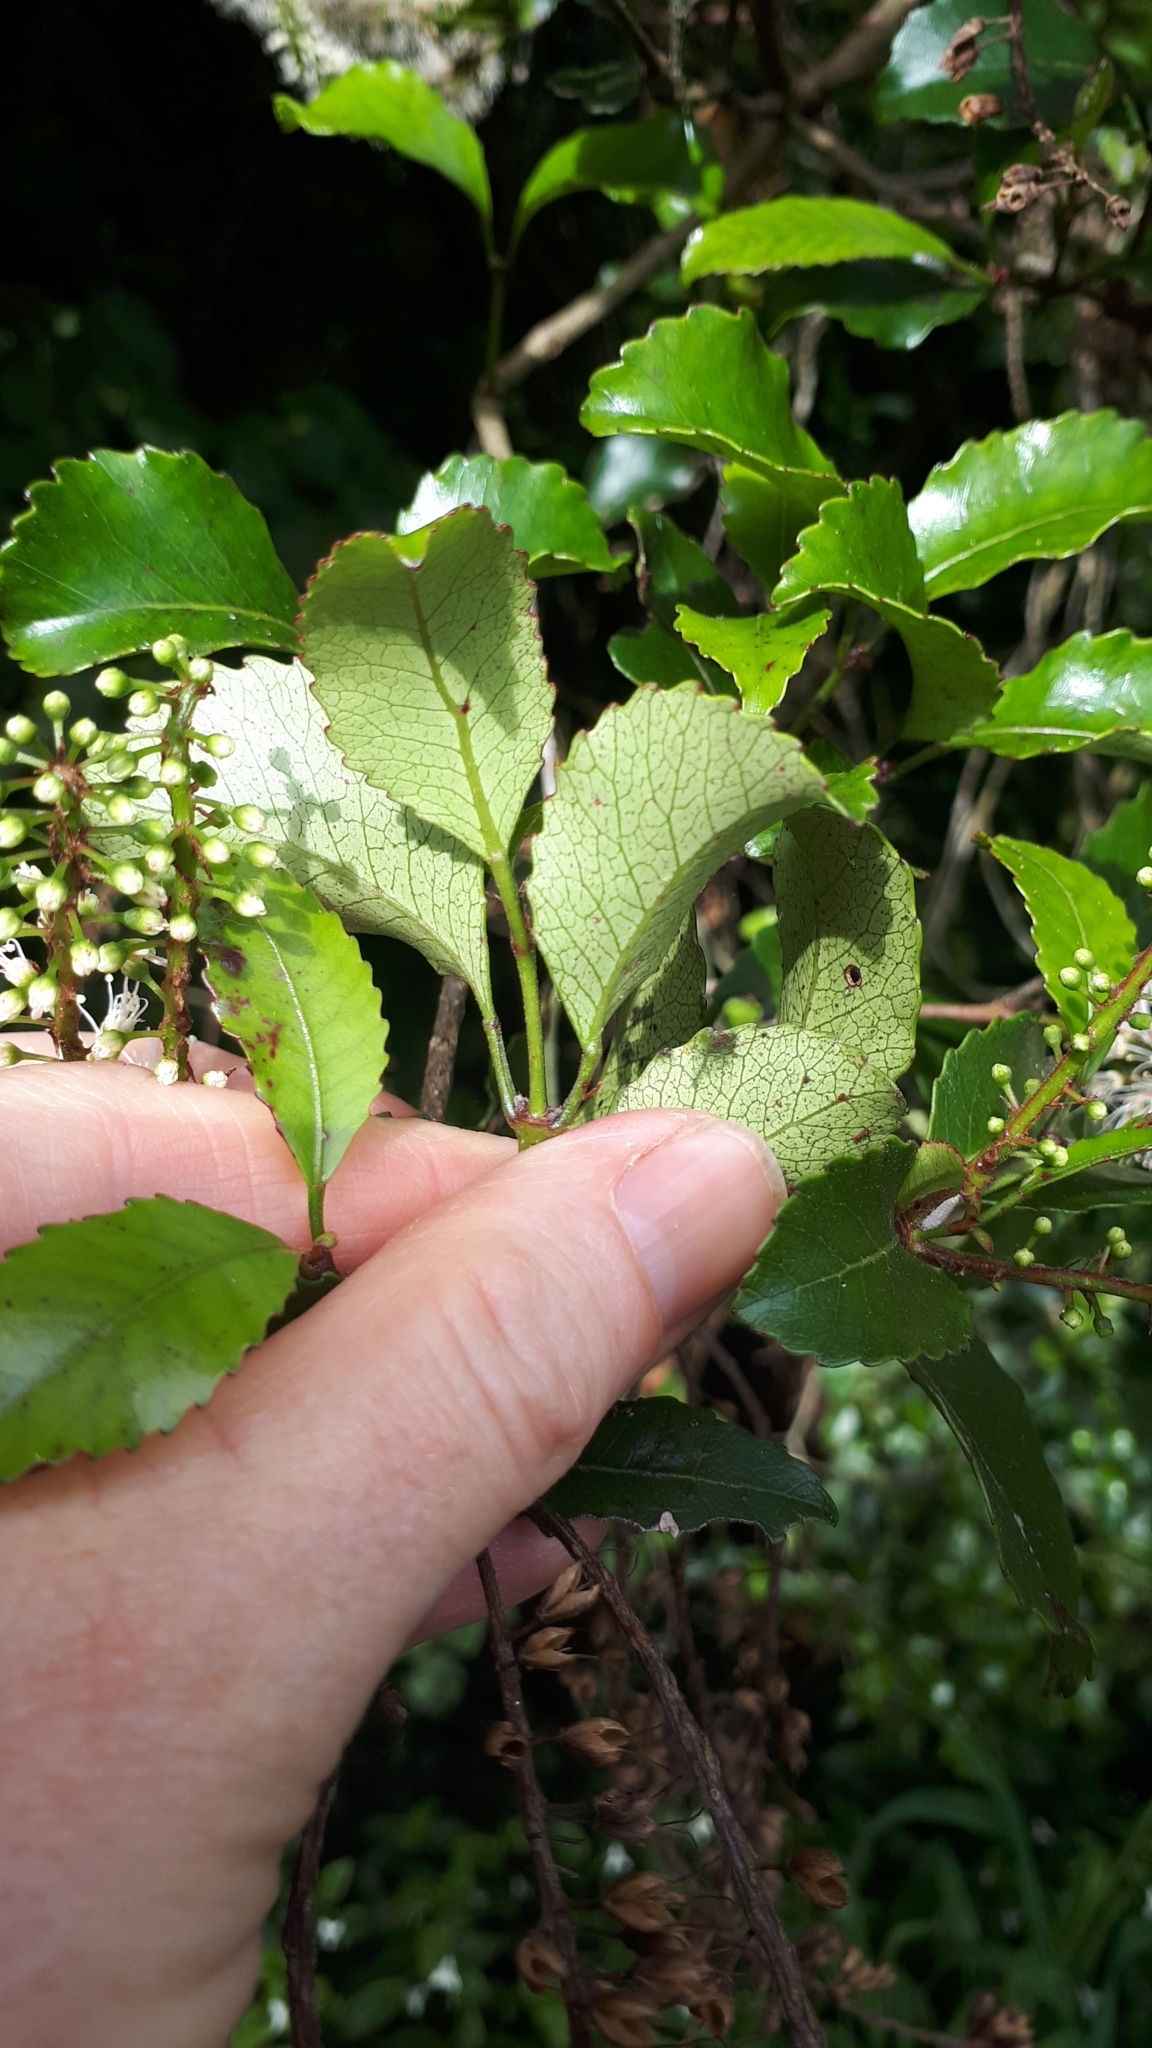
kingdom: Plantae
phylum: Tracheophyta
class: Magnoliopsida
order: Oxalidales
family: Cunoniaceae
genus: Pterophylla
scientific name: Pterophylla racemosa
